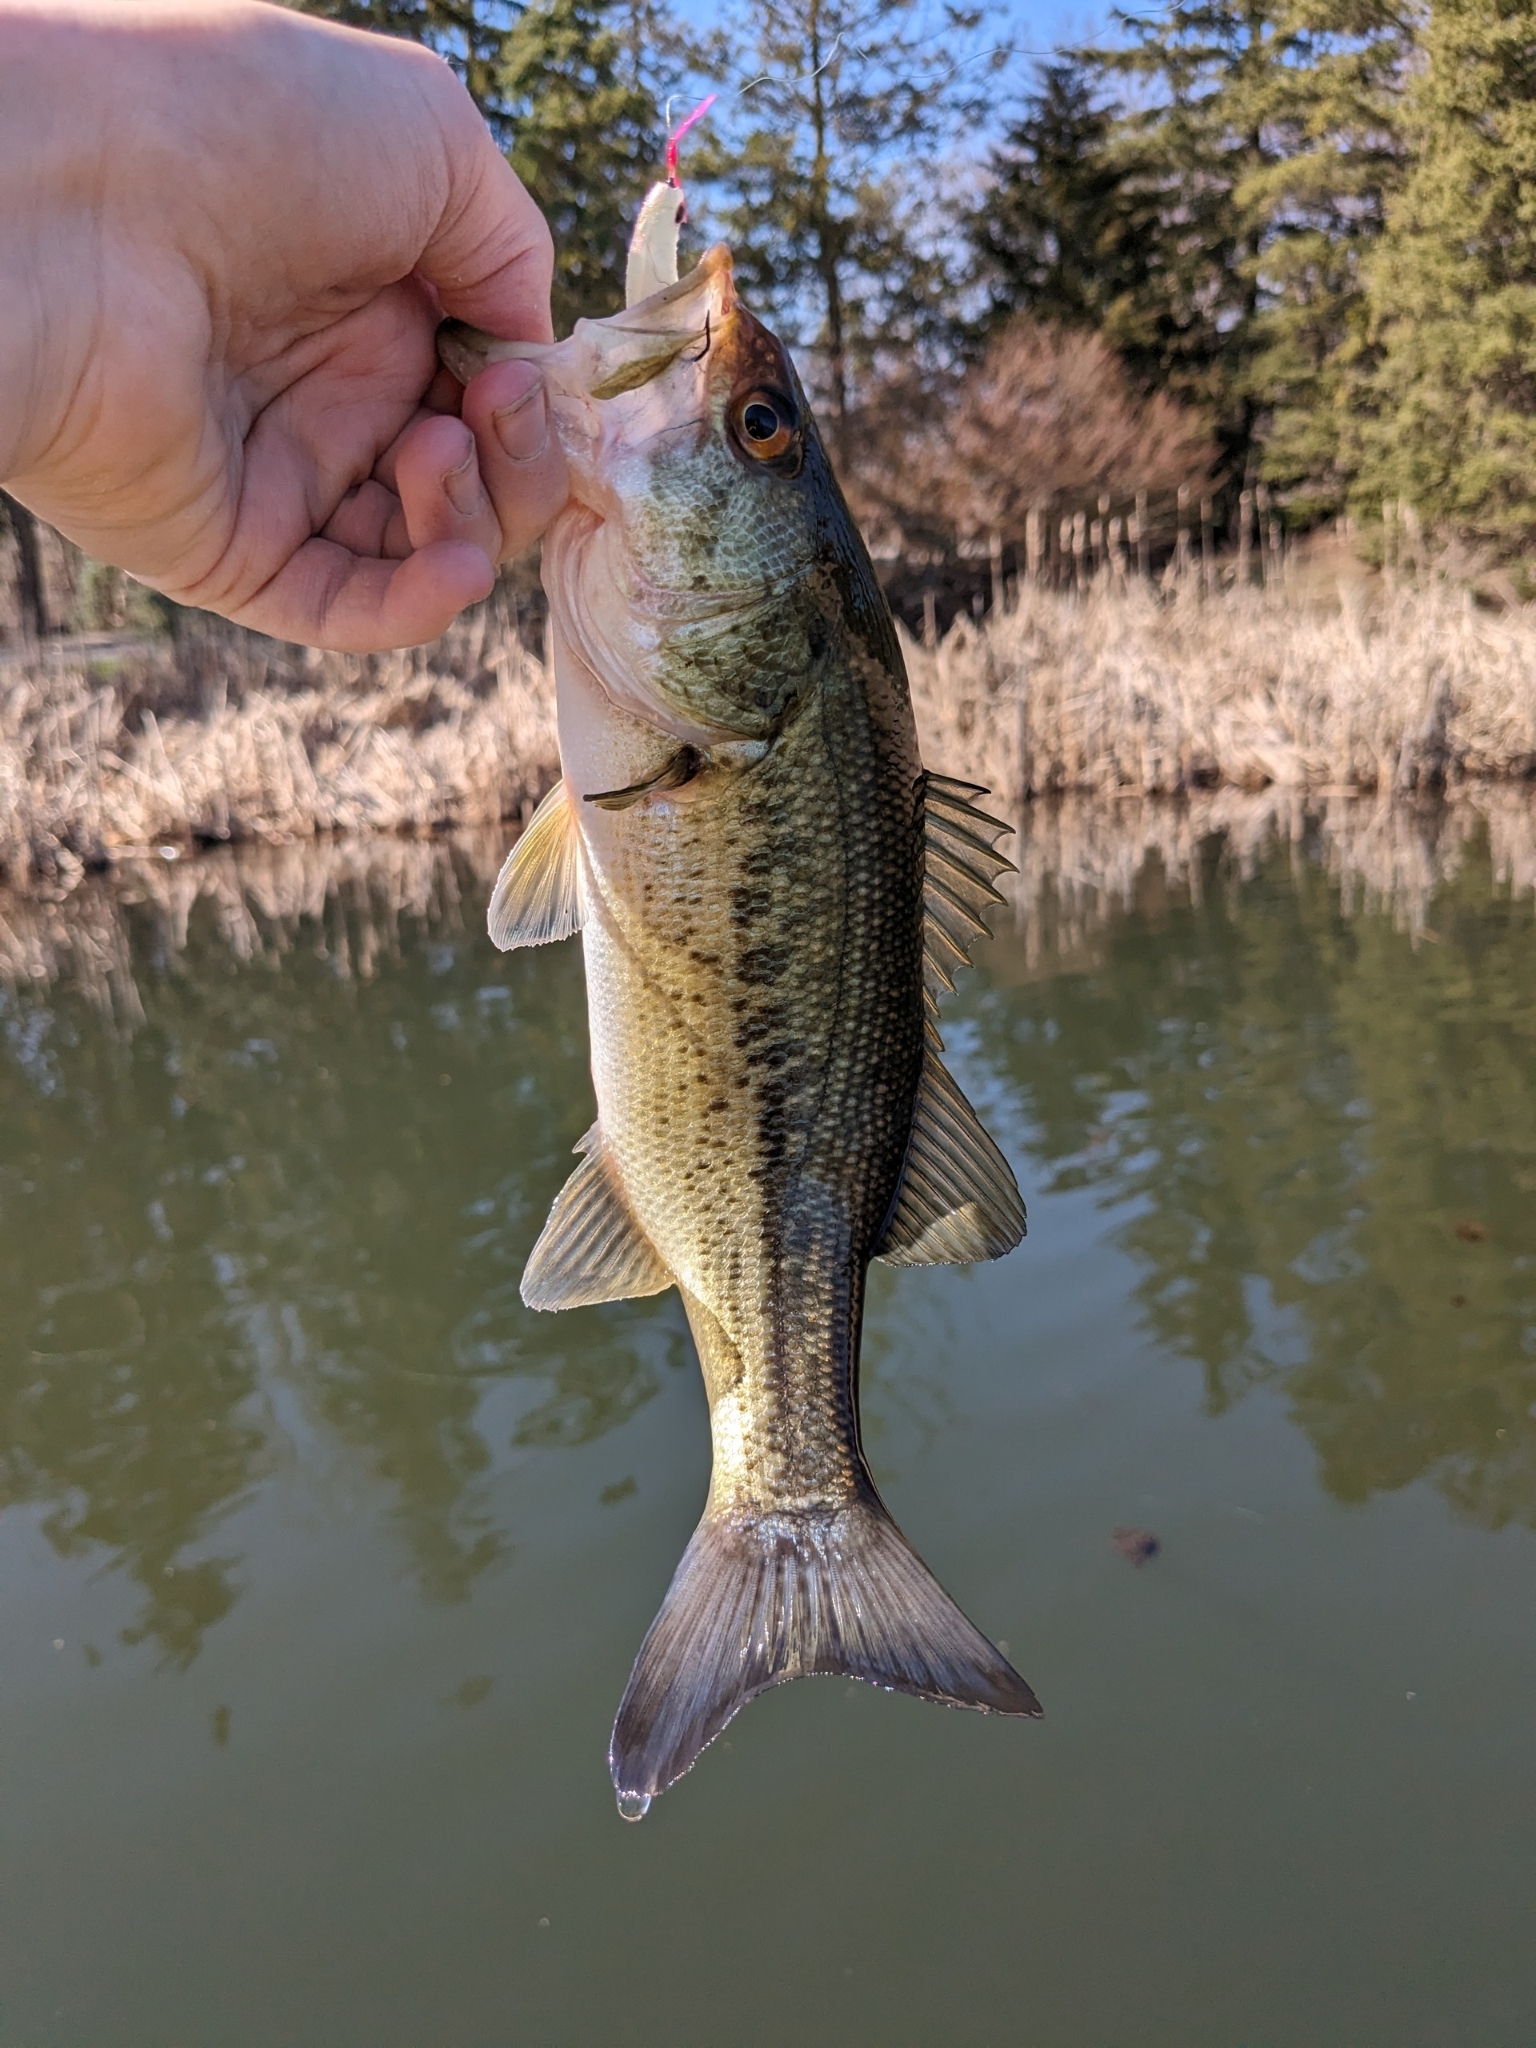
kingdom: Animalia
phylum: Chordata
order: Perciformes
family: Centrarchidae
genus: Micropterus
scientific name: Micropterus
